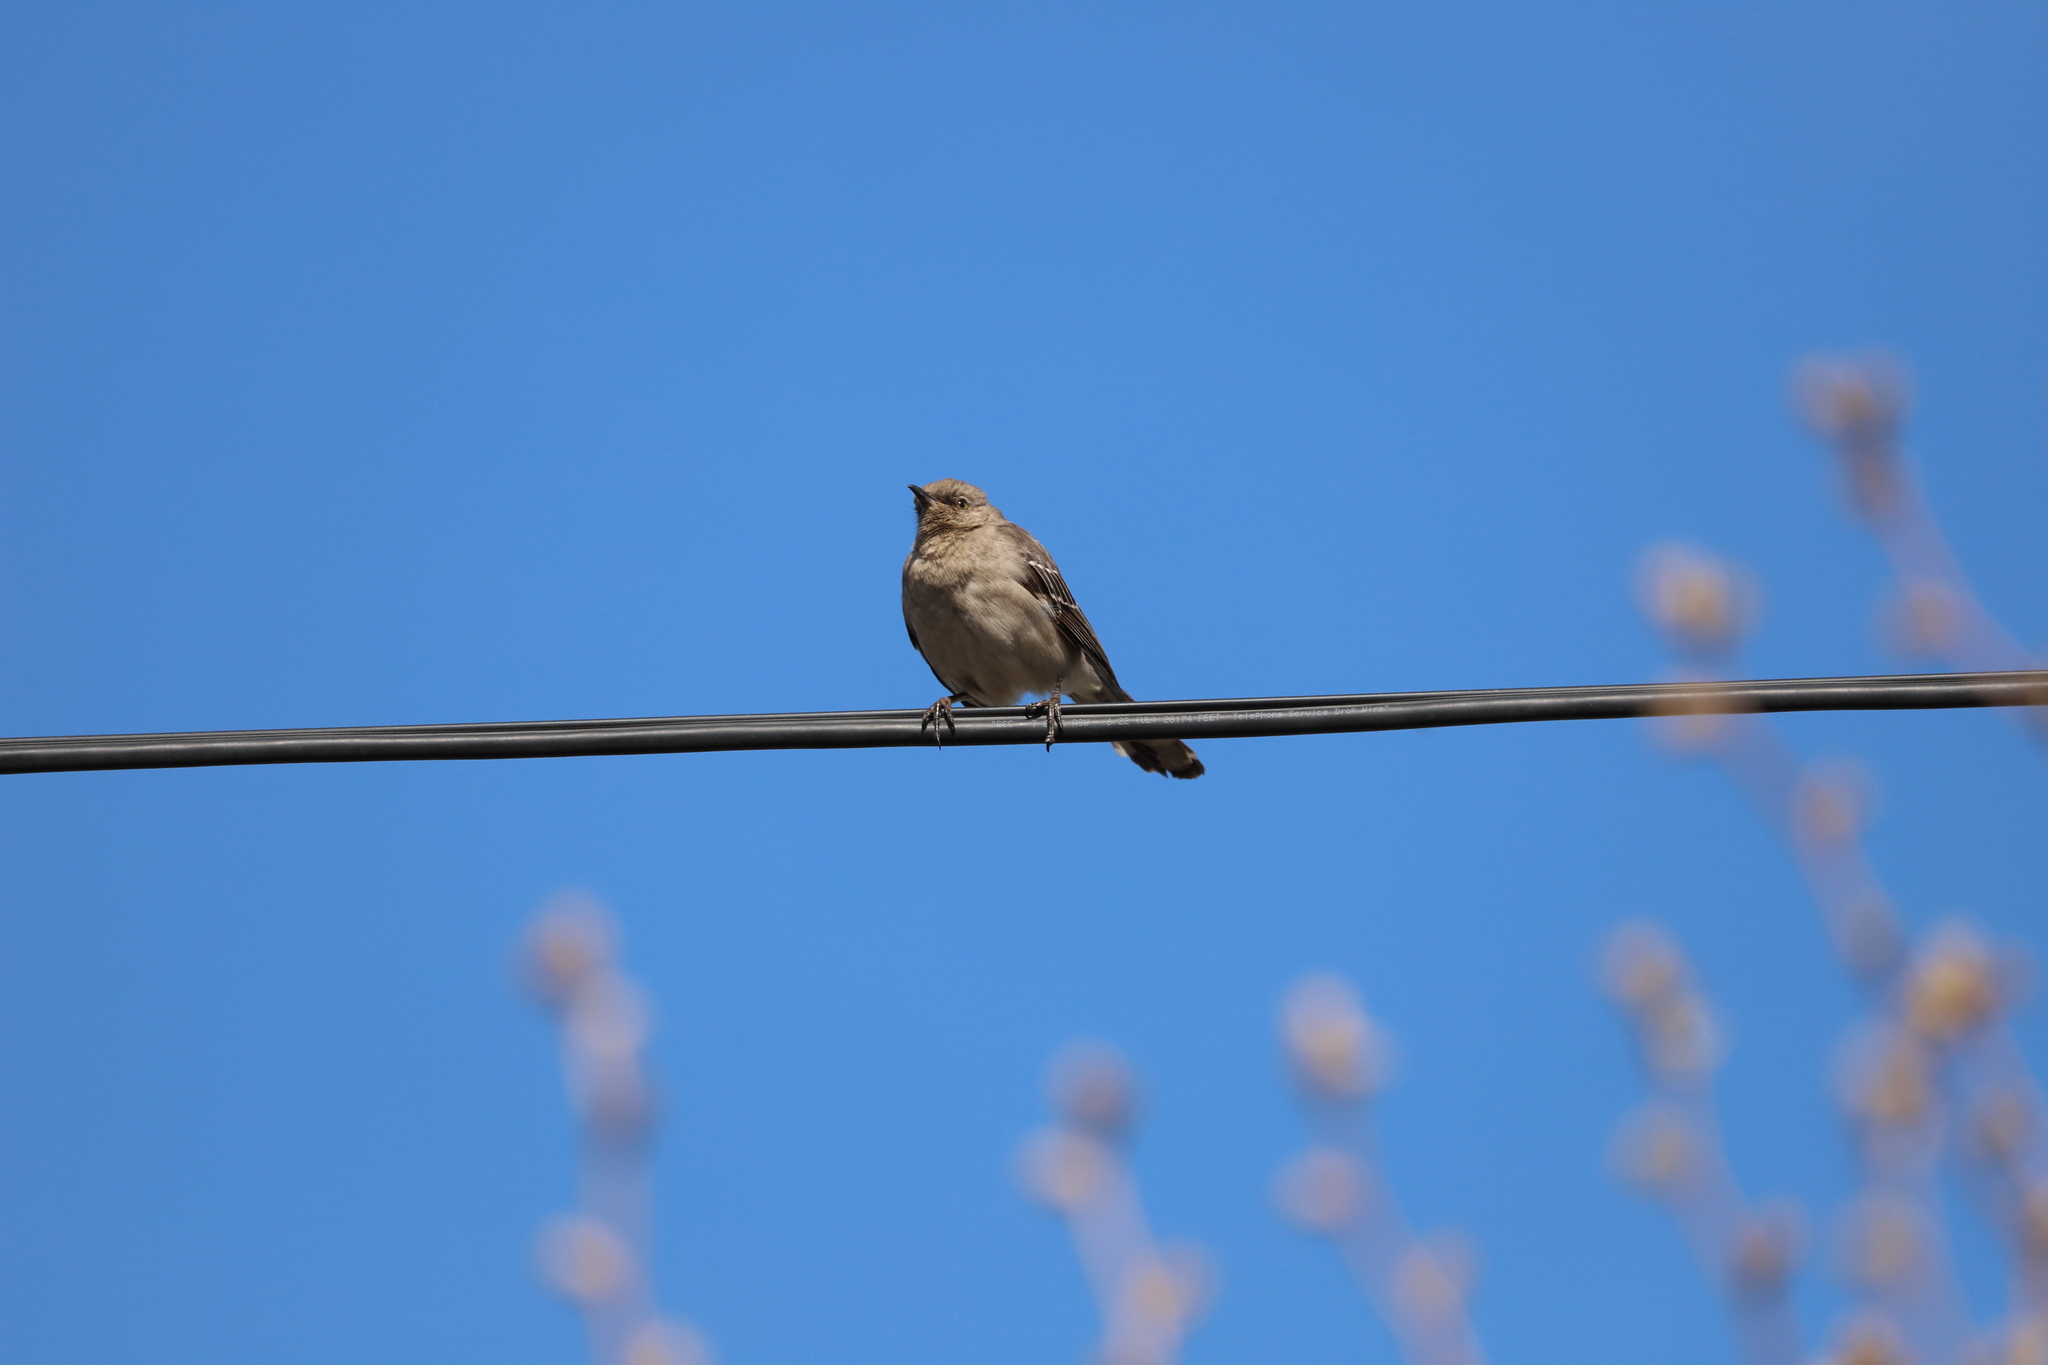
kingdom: Animalia
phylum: Chordata
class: Aves
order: Passeriformes
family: Mimidae
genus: Mimus
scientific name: Mimus polyglottos
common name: Northern mockingbird
